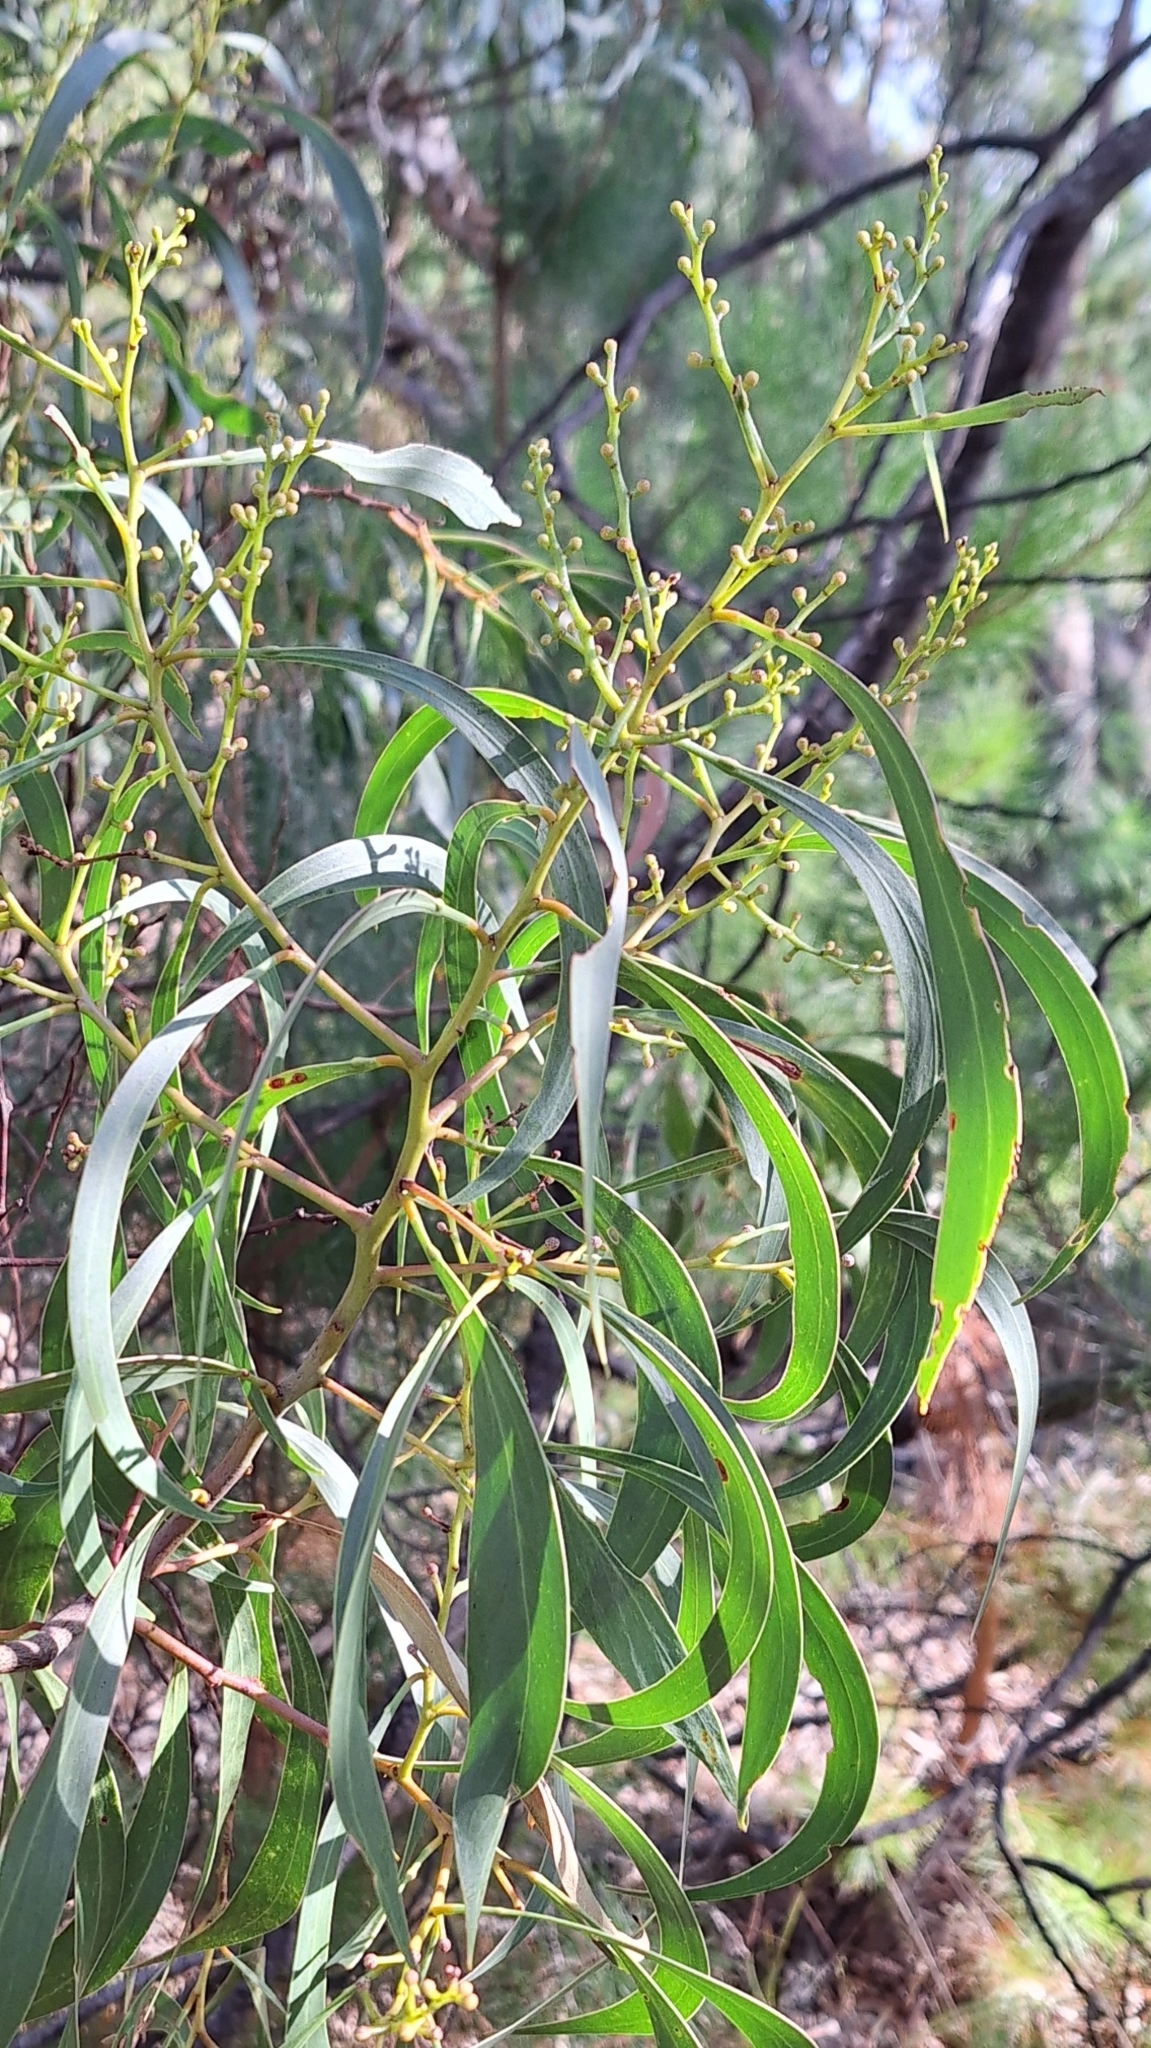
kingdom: Plantae
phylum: Tracheophyta
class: Magnoliopsida
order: Fabales
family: Fabaceae
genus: Acacia
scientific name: Acacia pycnantha
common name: Golden wattle
